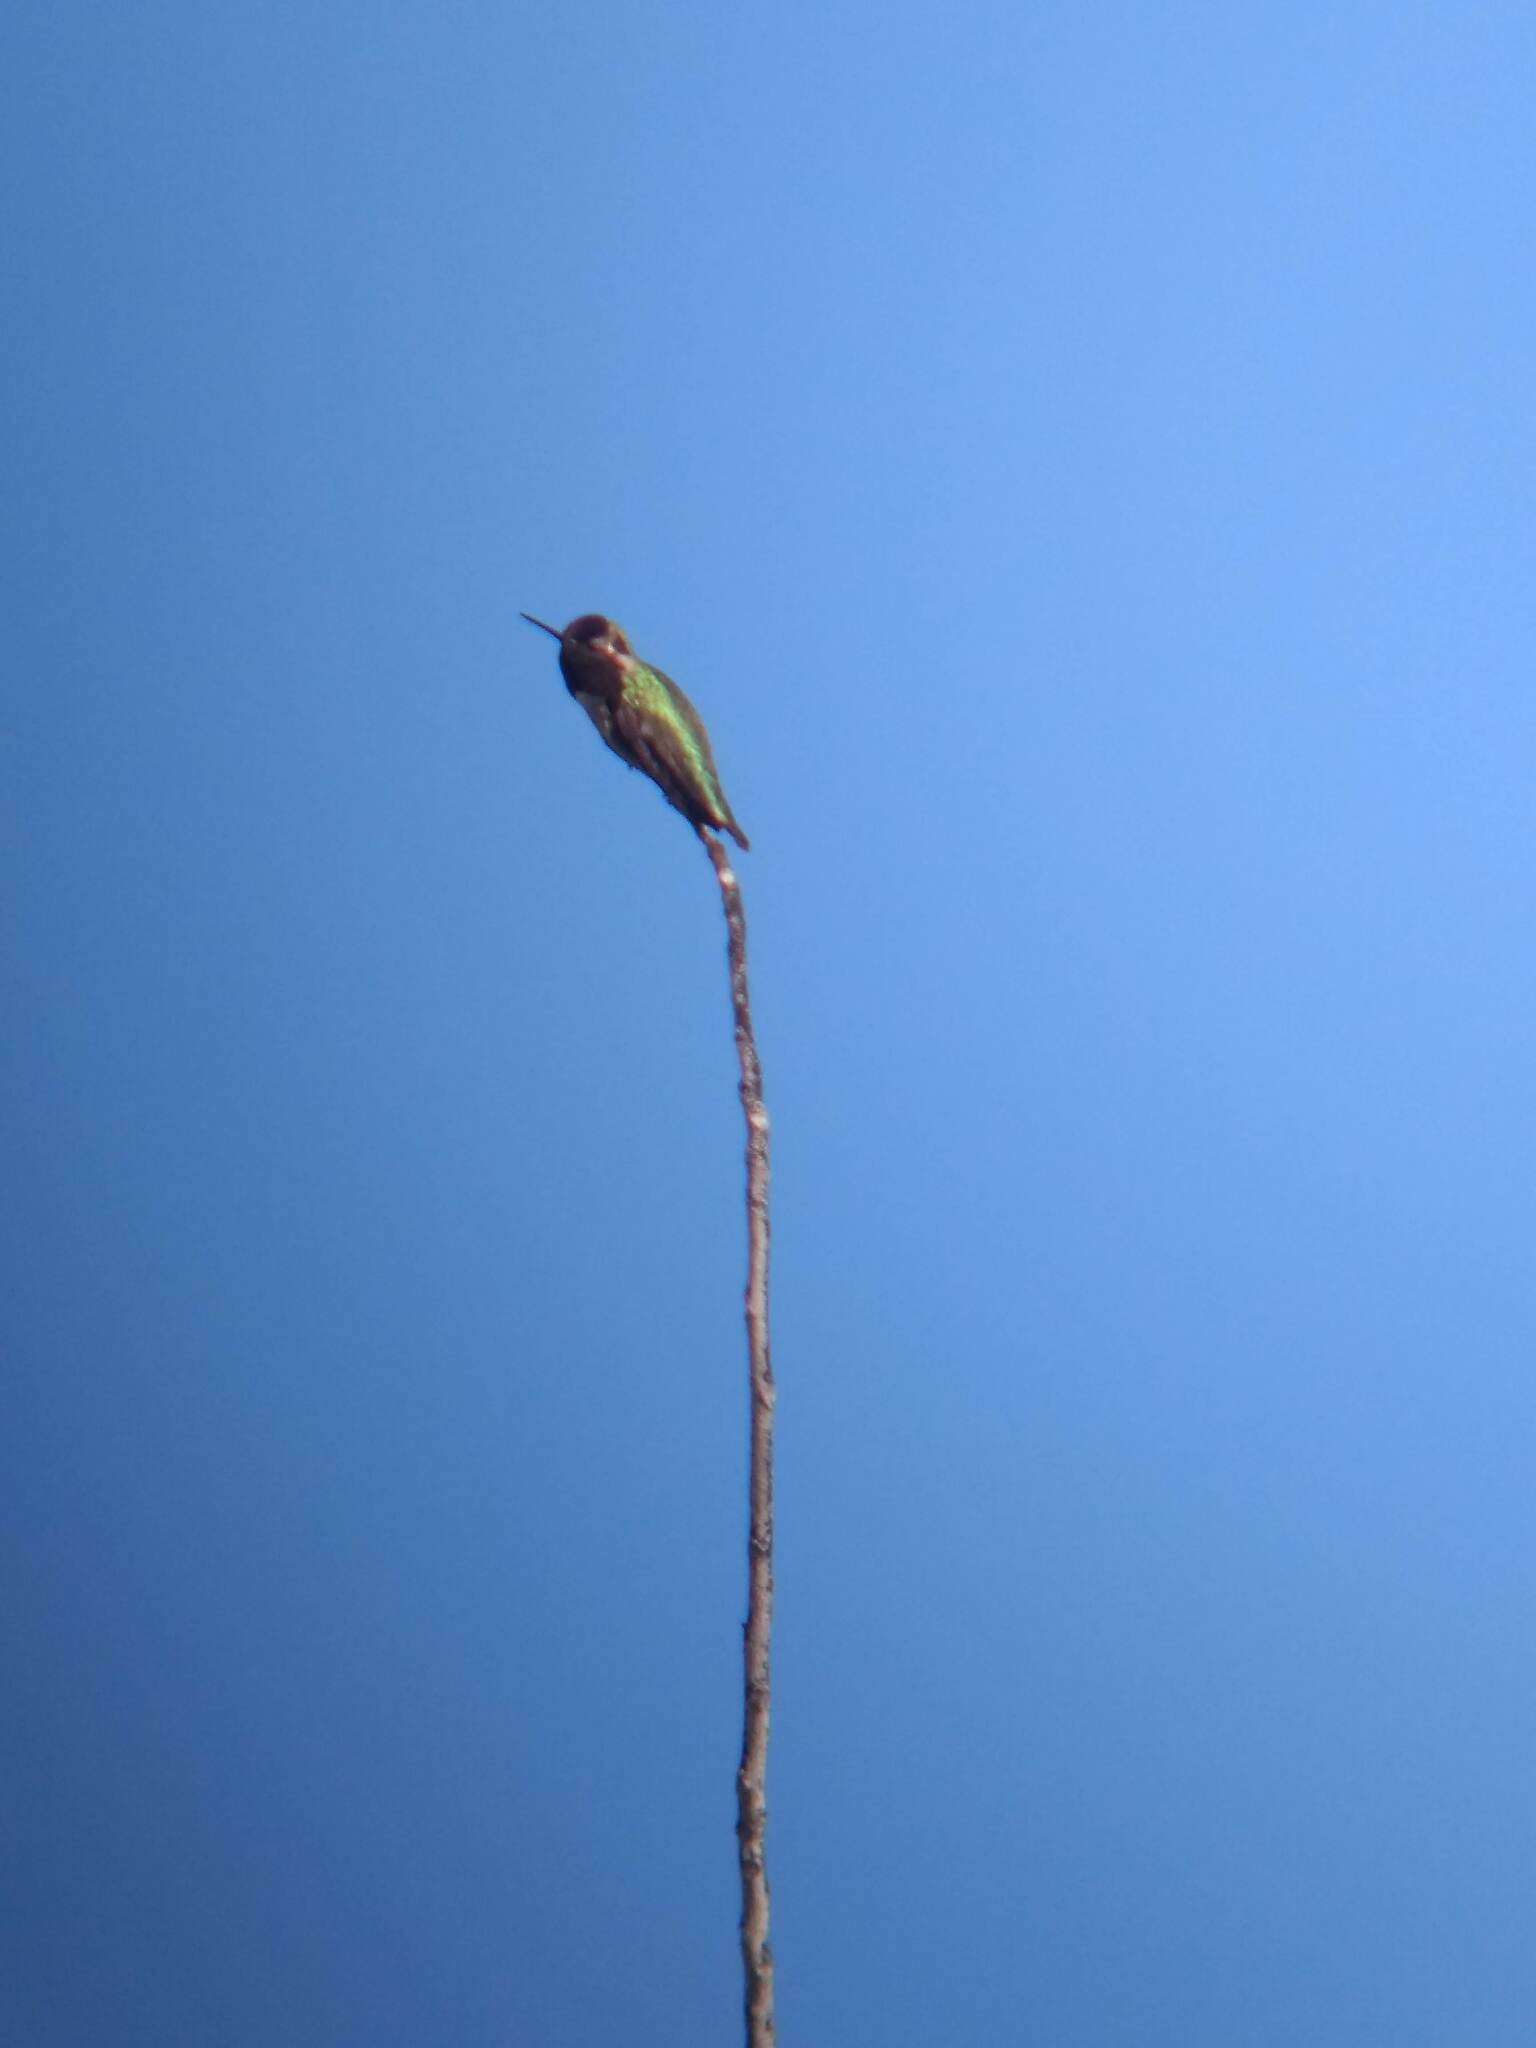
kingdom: Animalia
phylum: Chordata
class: Aves
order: Apodiformes
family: Trochilidae
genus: Calypte
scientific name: Calypte anna
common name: Anna's hummingbird
